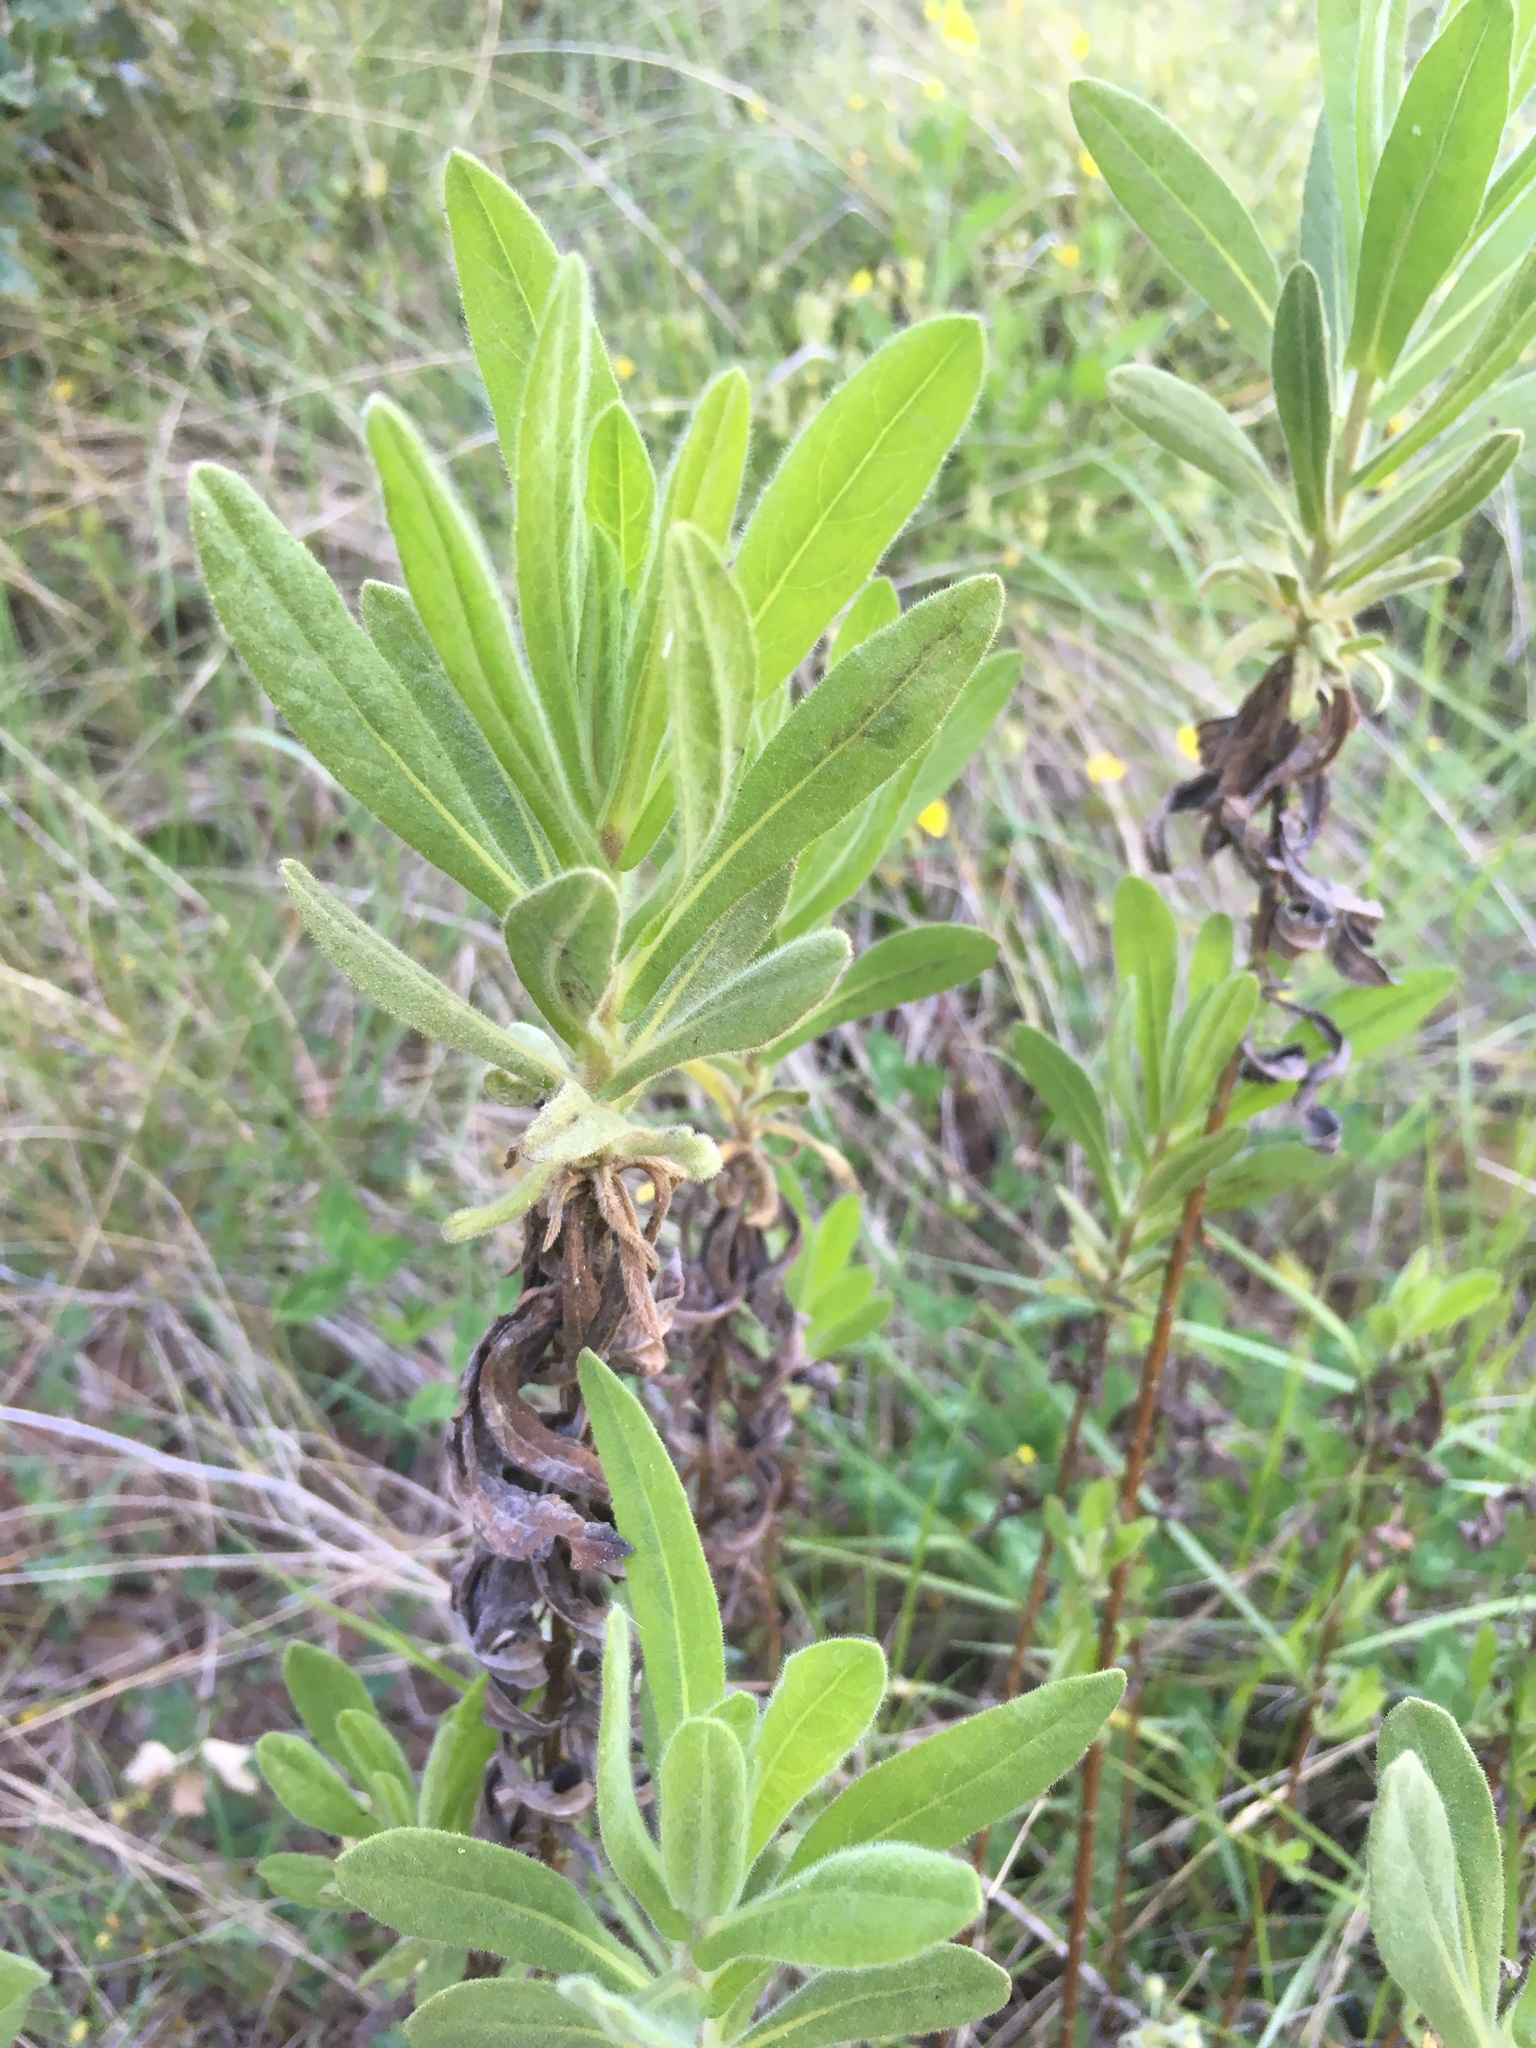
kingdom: Plantae
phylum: Tracheophyta
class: Magnoliopsida
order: Asterales
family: Asteraceae
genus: Dittrichia
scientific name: Dittrichia viscosa
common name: Woody fleabane
